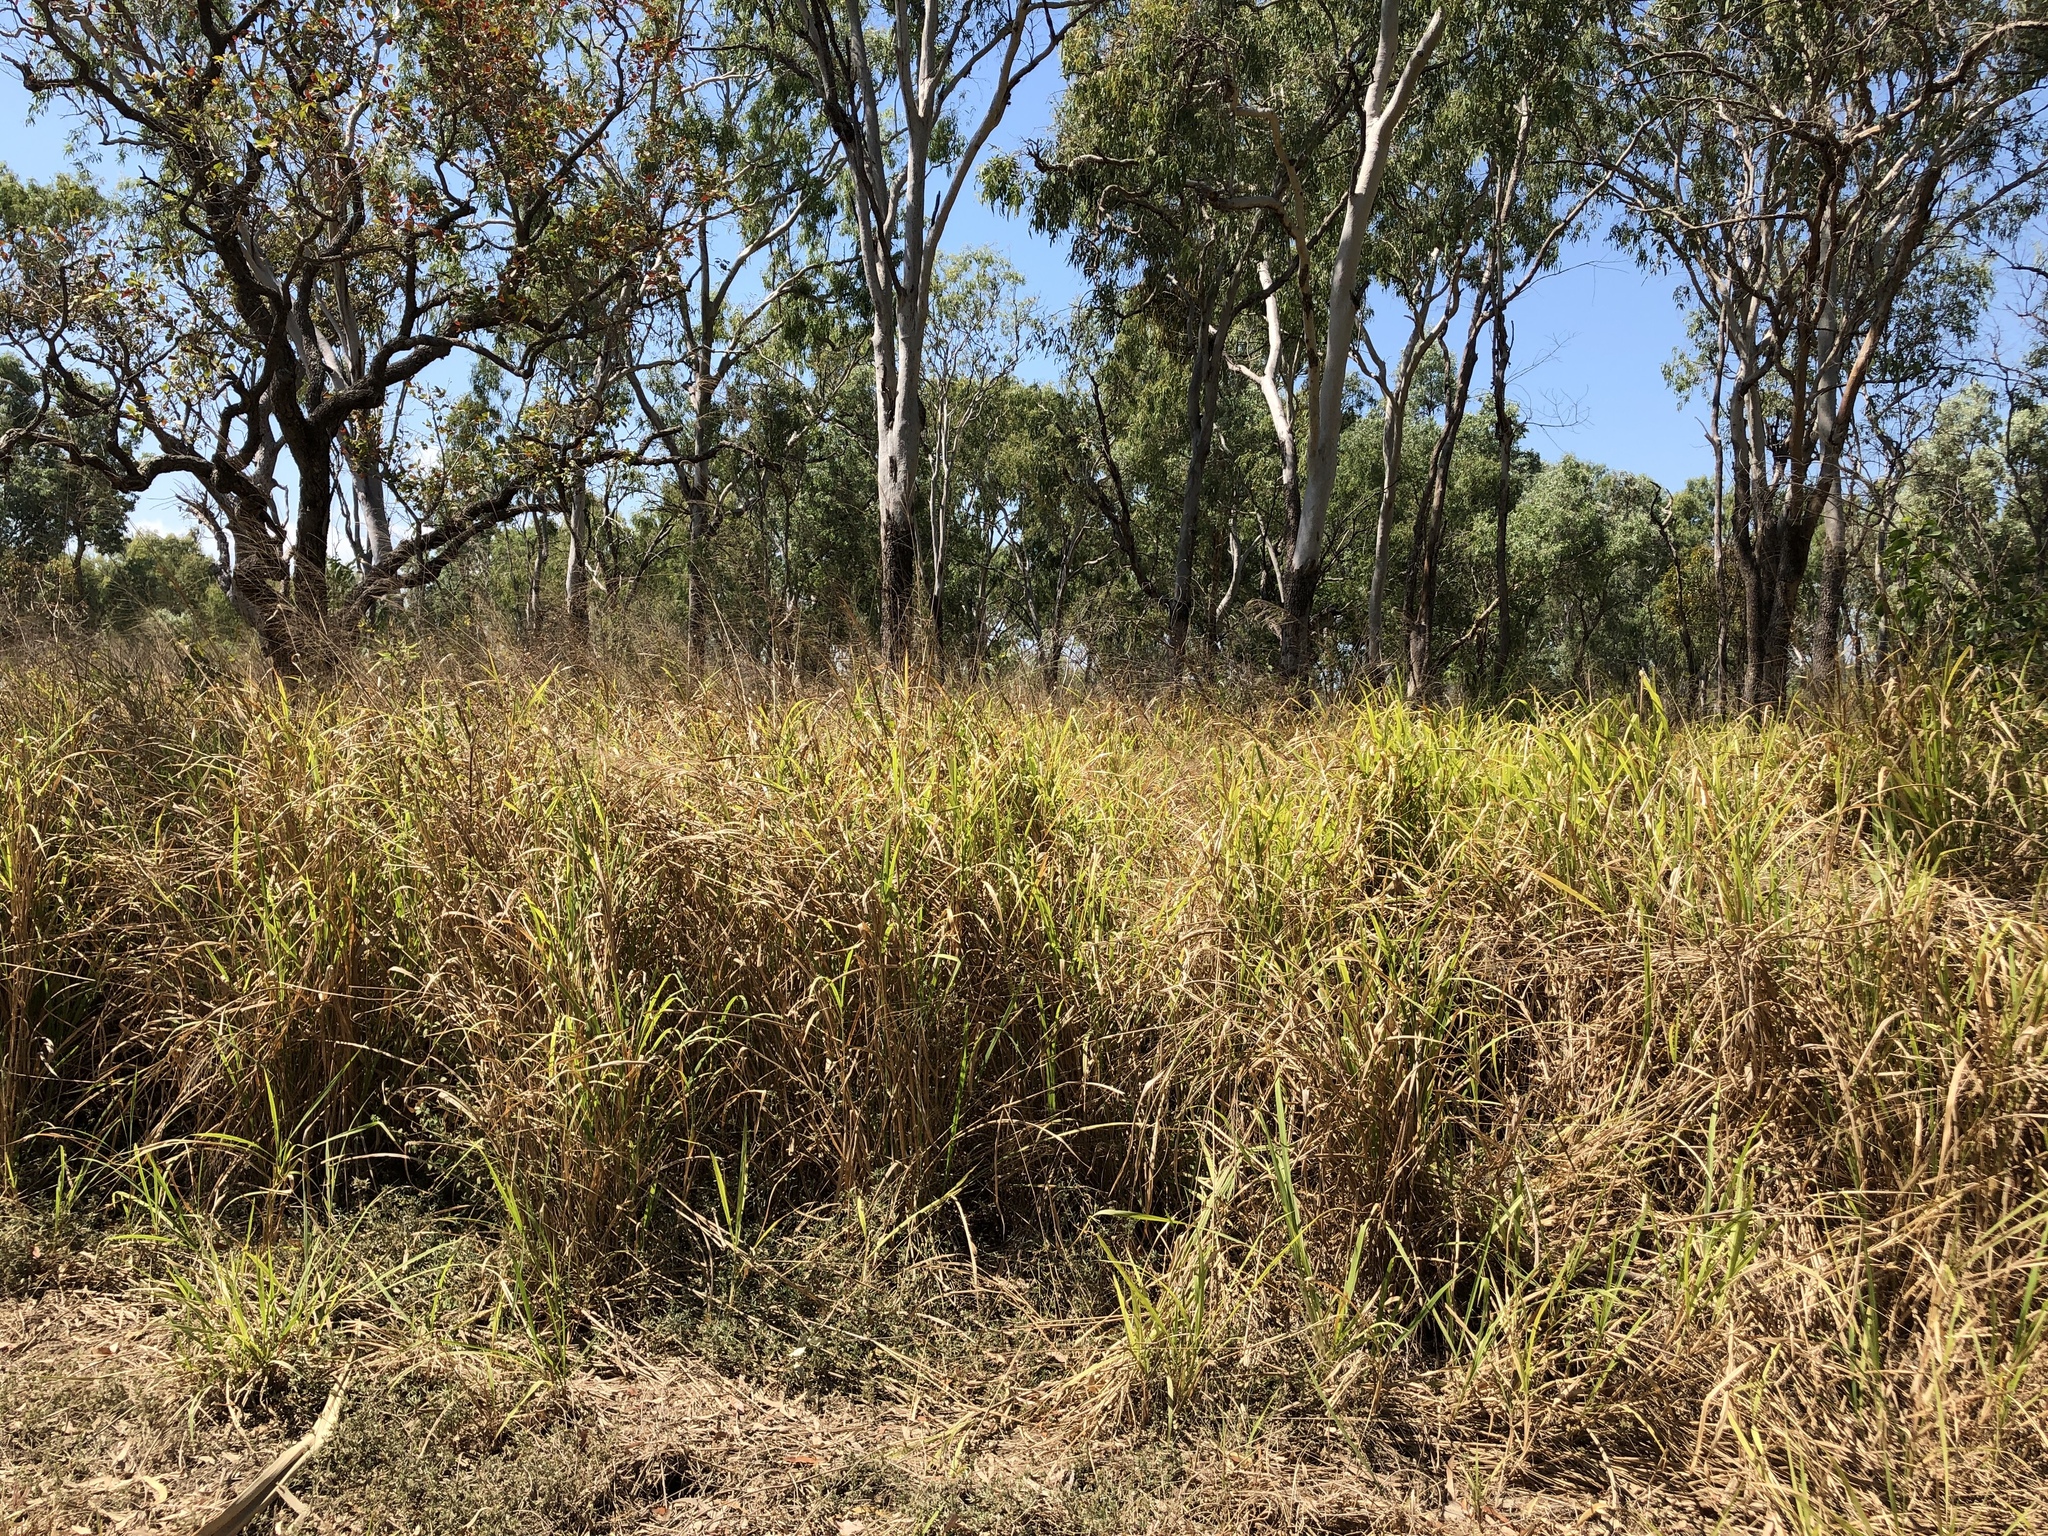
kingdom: Plantae
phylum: Tracheophyta
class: Liliopsida
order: Poales
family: Poaceae
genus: Megathyrsus
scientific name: Megathyrsus maximus
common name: Guineagrass
